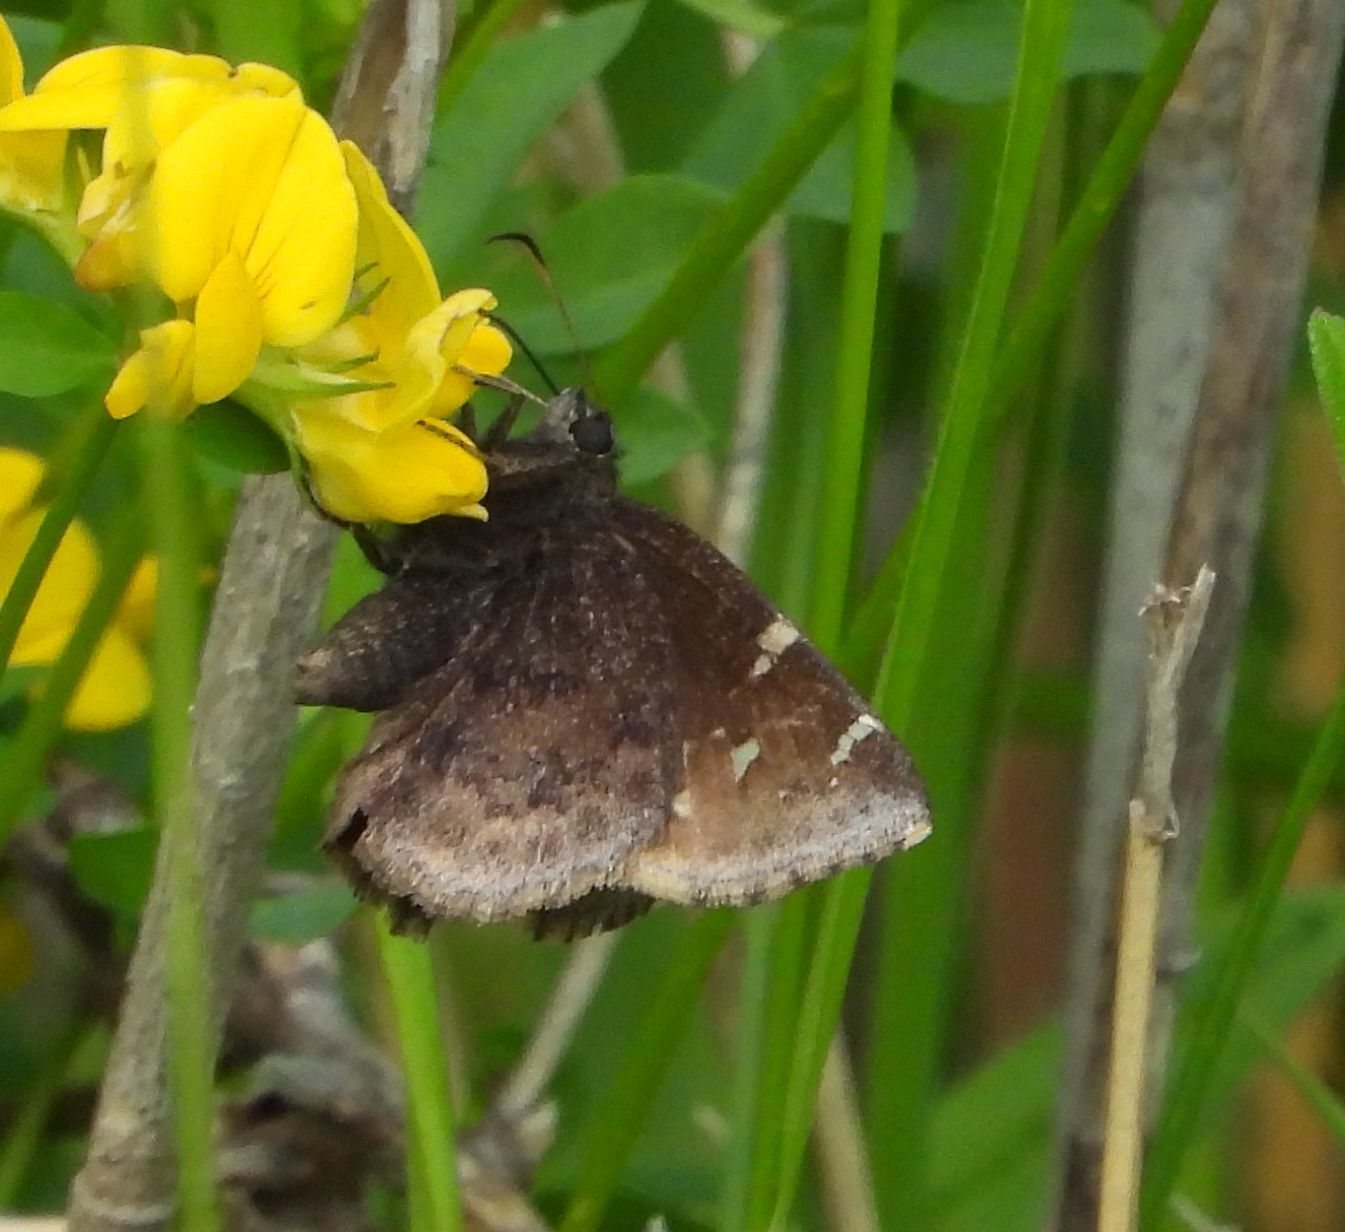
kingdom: Animalia
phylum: Arthropoda
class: Insecta
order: Lepidoptera
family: Hesperiidae
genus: Thorybes
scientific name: Thorybes pylades
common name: Northern cloudywing
